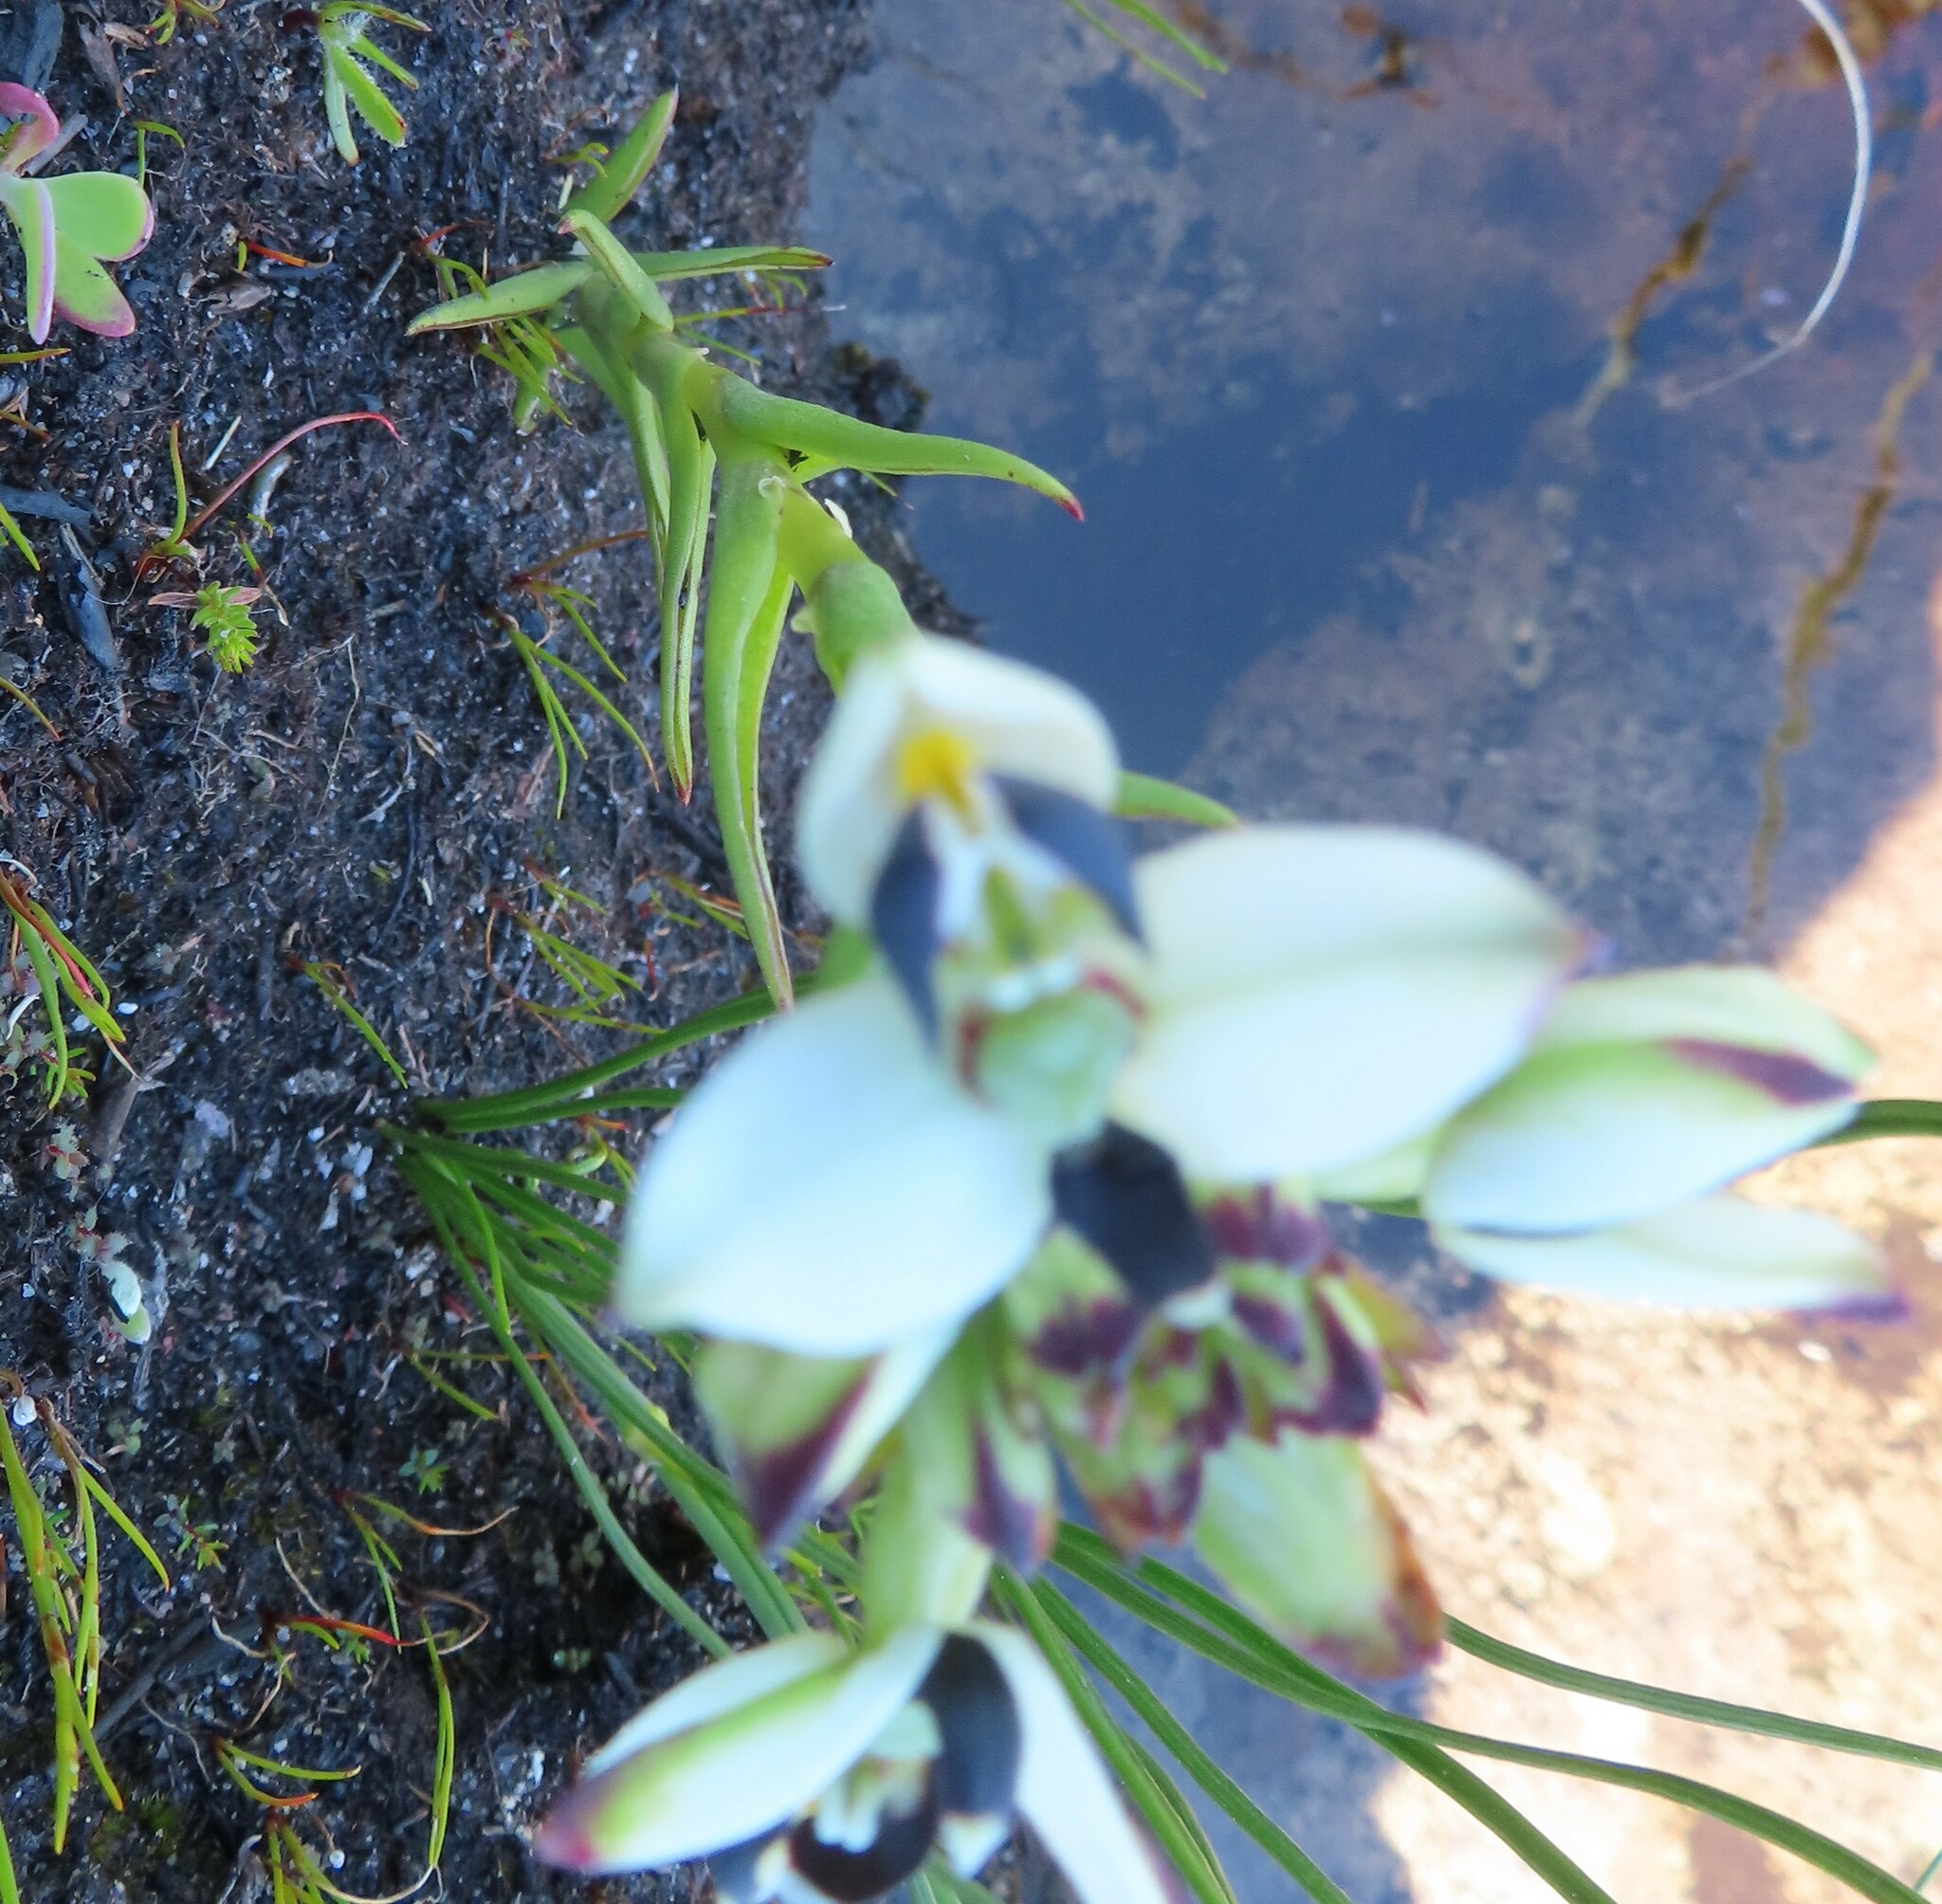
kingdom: Plantae
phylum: Tracheophyta
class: Liliopsida
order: Asparagales
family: Orchidaceae
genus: Disa
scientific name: Disa bivalvata
